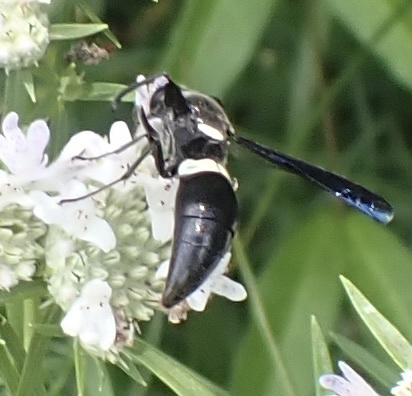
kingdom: Animalia
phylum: Arthropoda
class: Insecta
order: Hymenoptera
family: Eumenidae
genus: Monobia
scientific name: Monobia quadridens
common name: Four-toothed mason wasp
